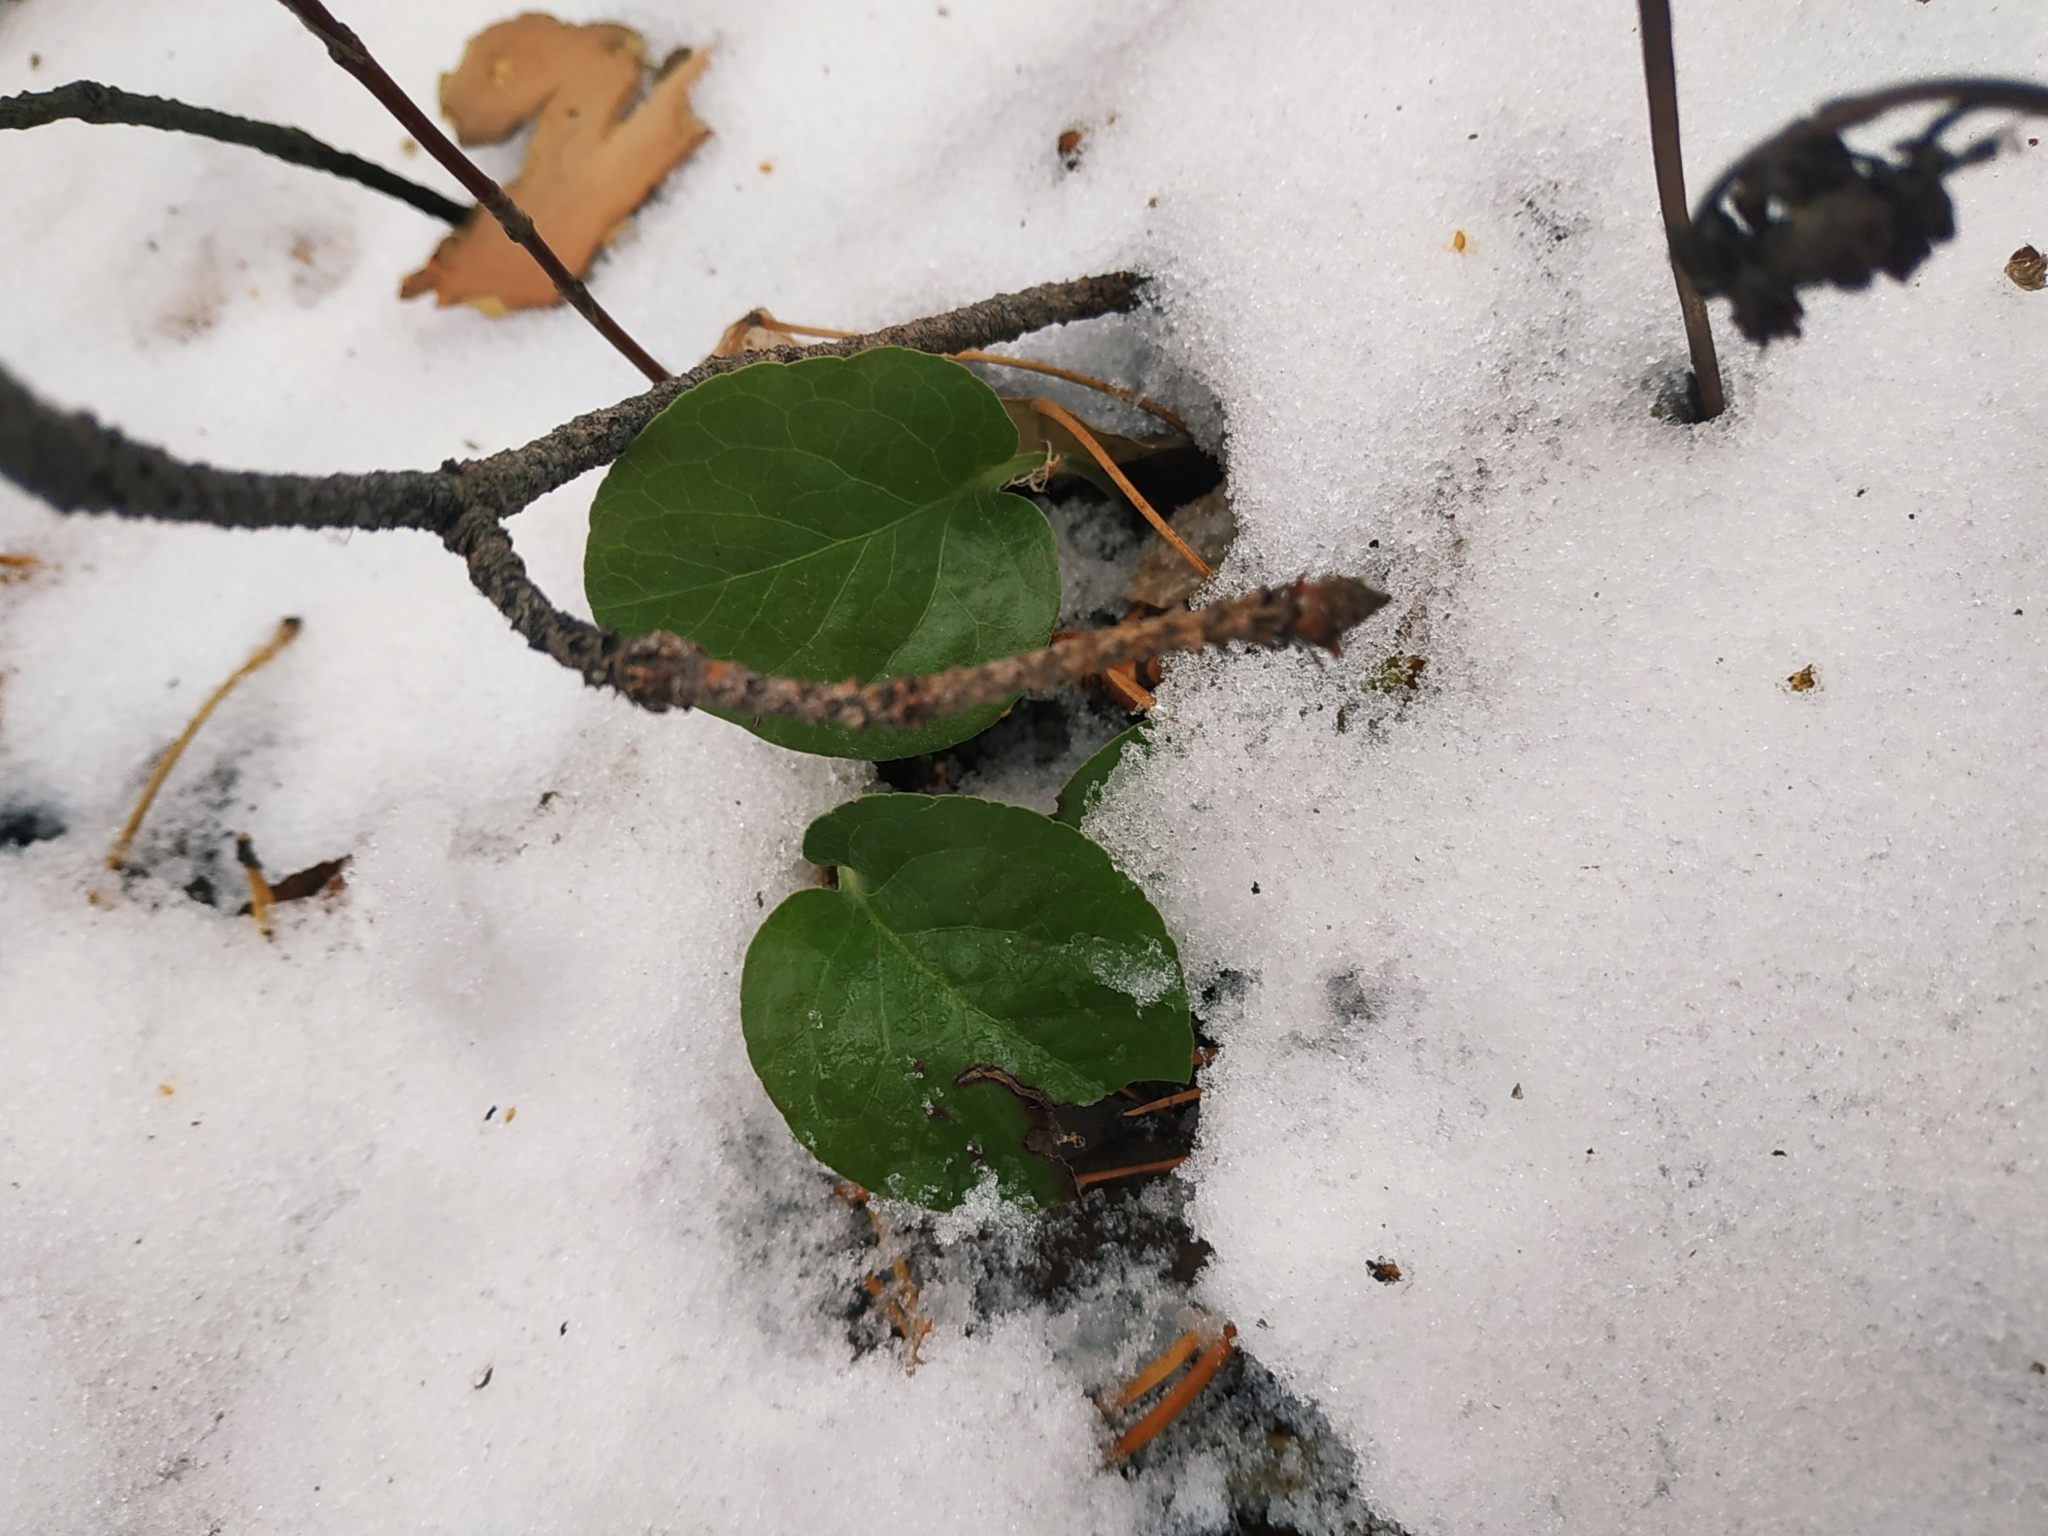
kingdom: Plantae
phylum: Tracheophyta
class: Magnoliopsida
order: Ericales
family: Ericaceae
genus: Pyrola
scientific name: Pyrola rotundifolia
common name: Round-leaved wintergreen
